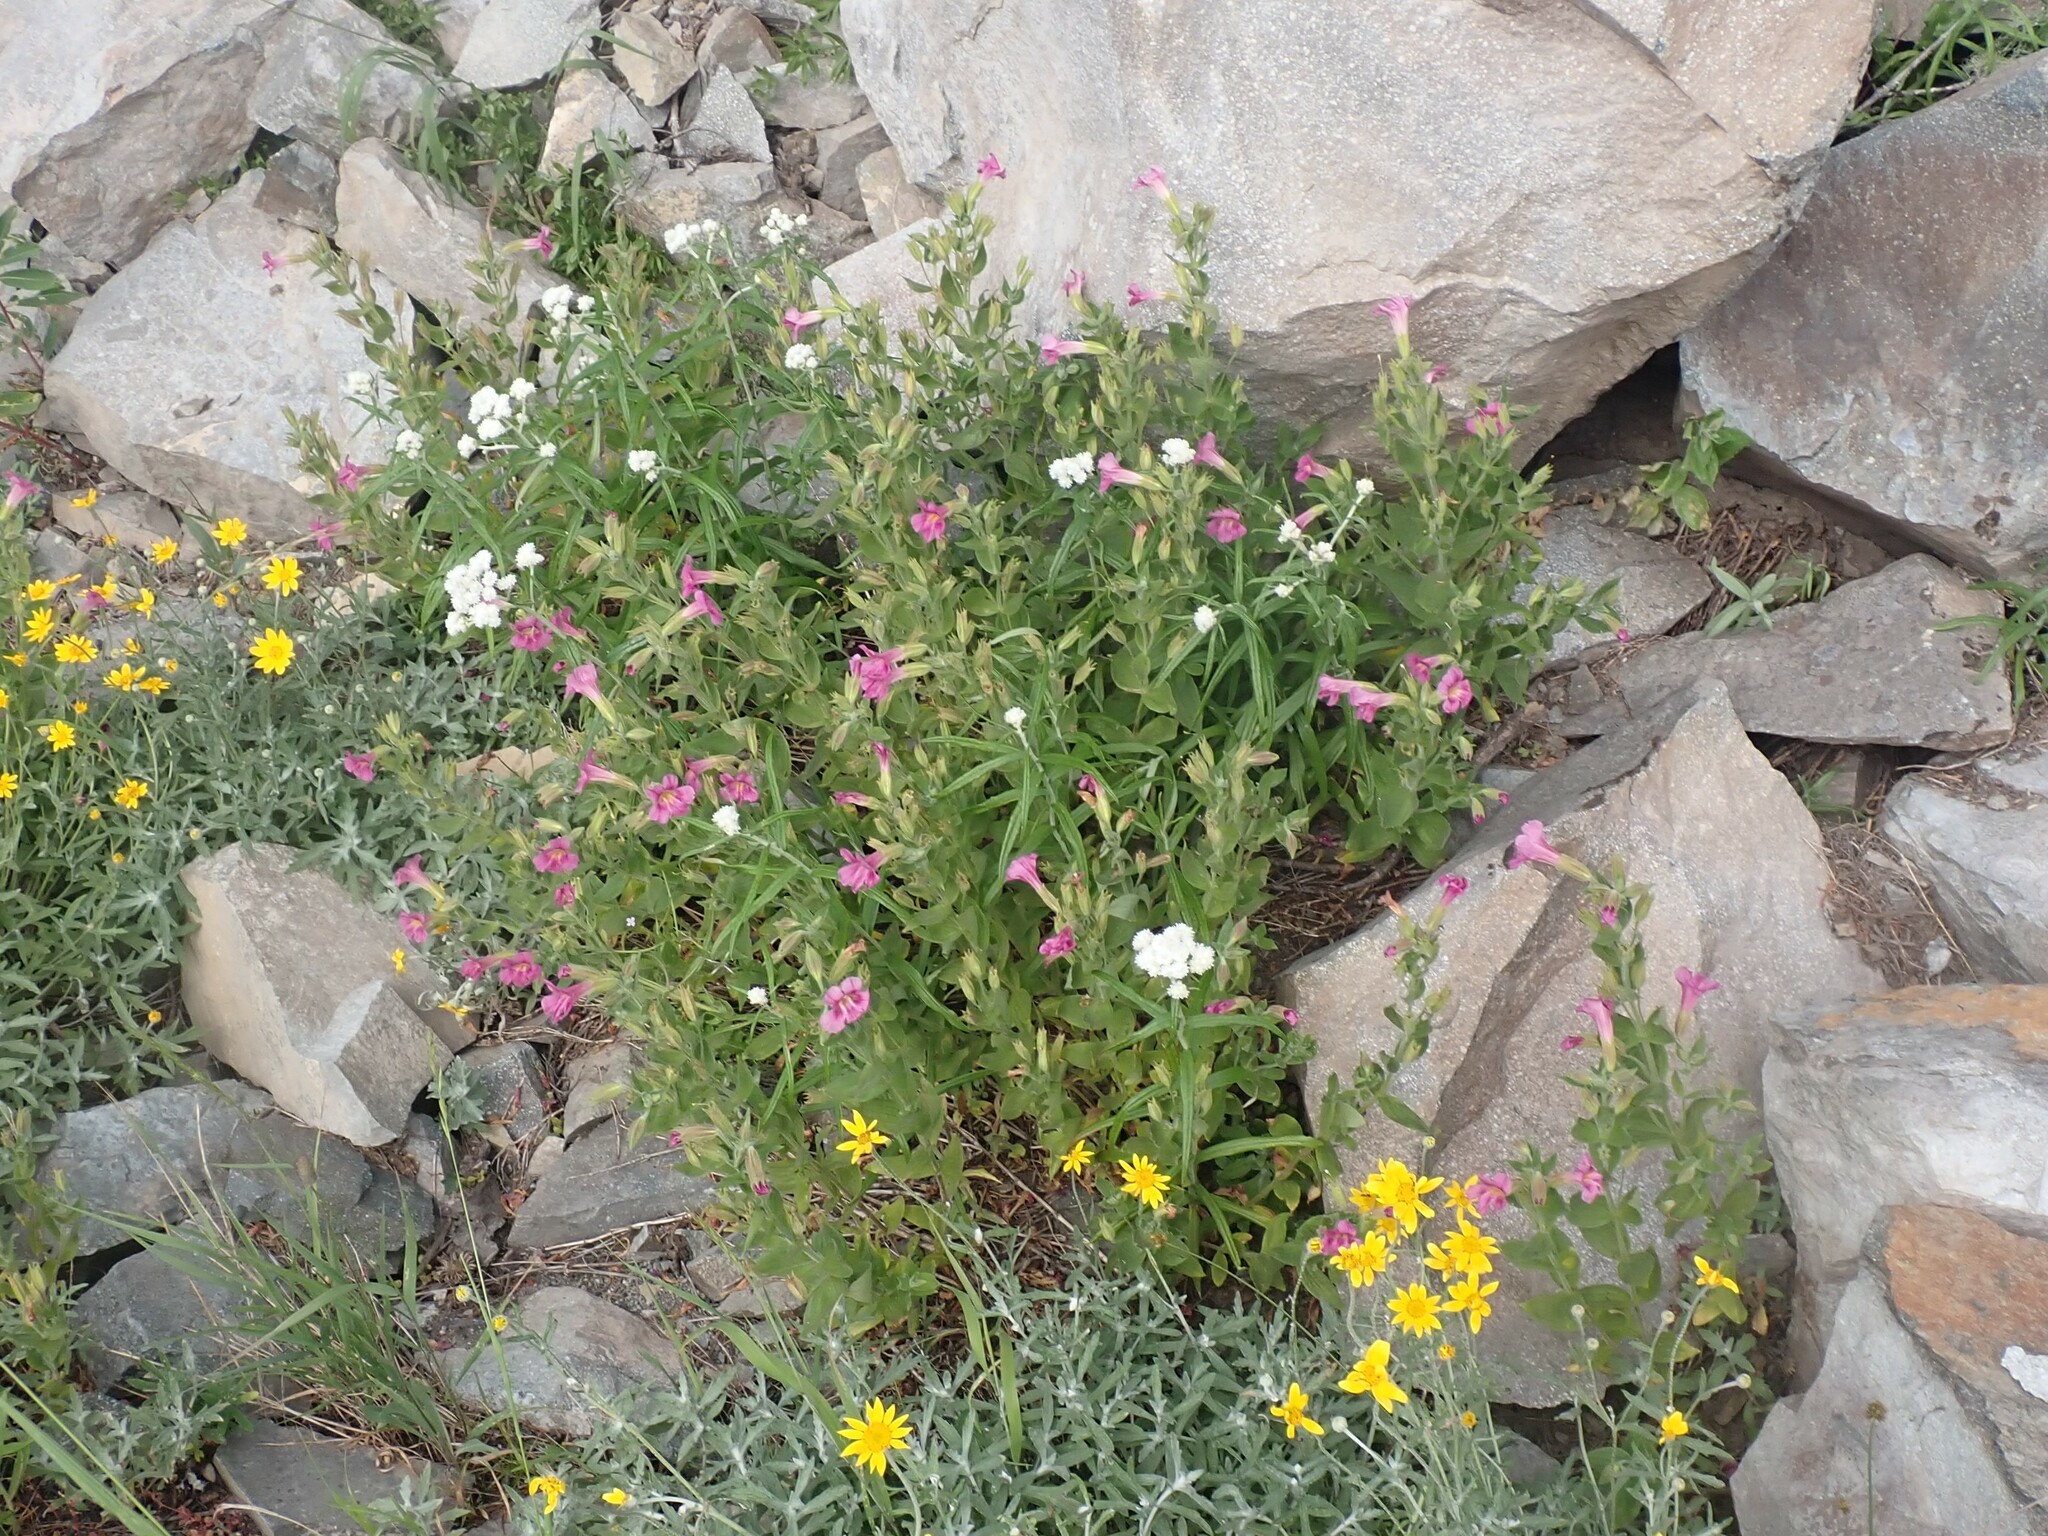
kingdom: Plantae
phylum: Tracheophyta
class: Magnoliopsida
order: Lamiales
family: Phrymaceae
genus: Erythranthe
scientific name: Erythranthe lewisii
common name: Lewis's monkey-flower
